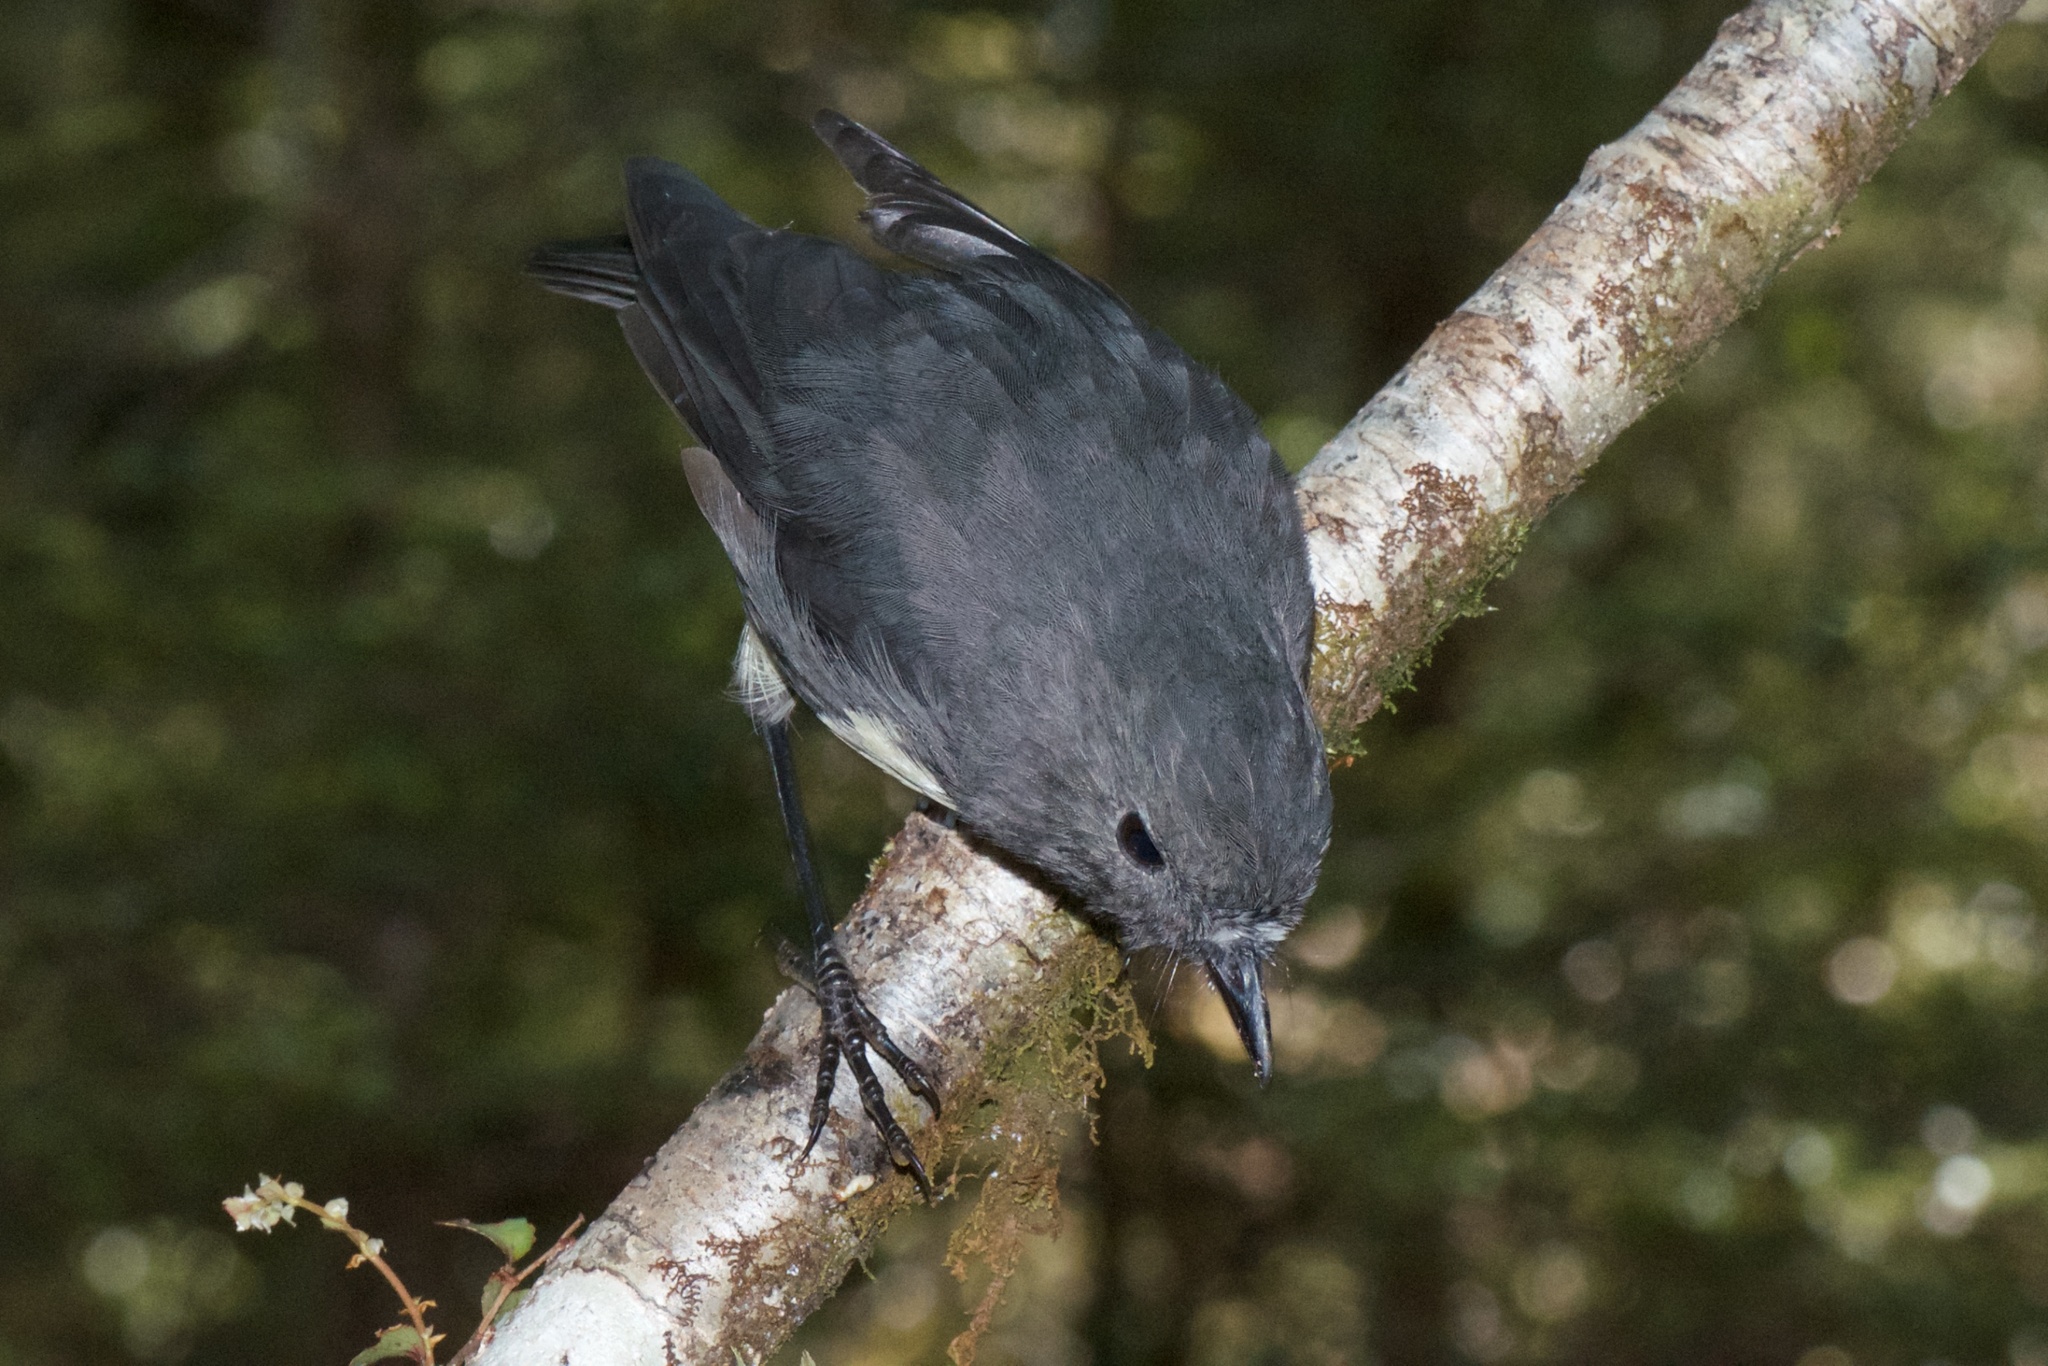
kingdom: Animalia
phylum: Chordata
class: Aves
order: Passeriformes
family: Petroicidae
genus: Petroica
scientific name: Petroica australis
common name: New zealand robin
